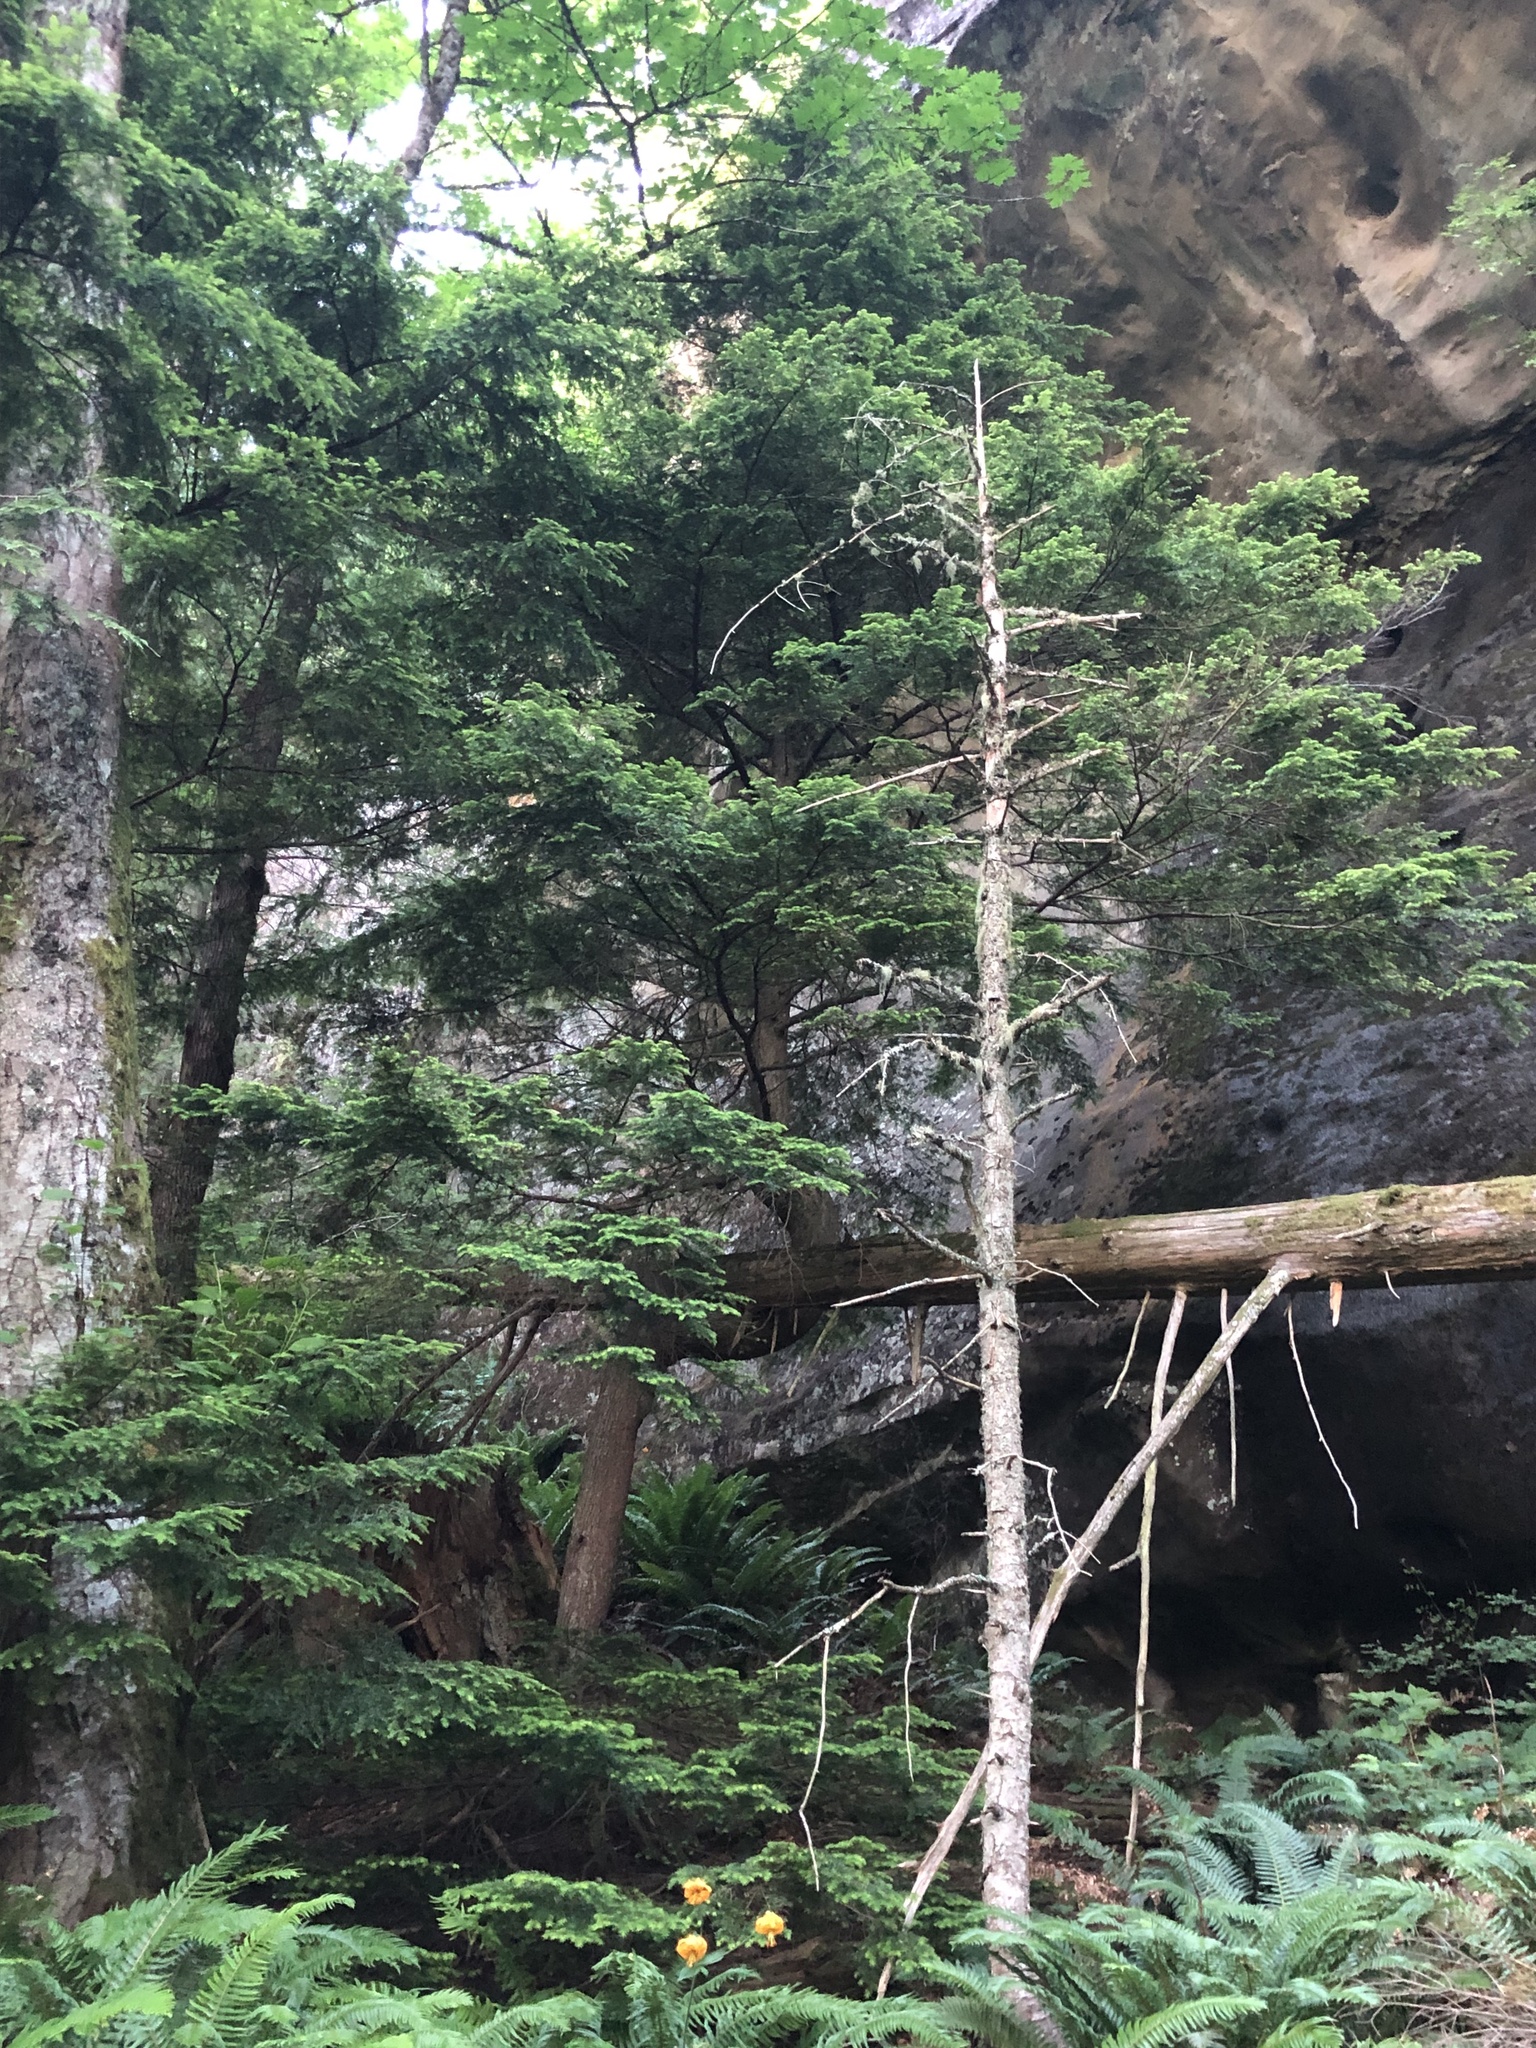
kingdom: Plantae
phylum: Tracheophyta
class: Pinopsida
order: Pinales
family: Pinaceae
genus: Tsuga
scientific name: Tsuga heterophylla
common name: Western hemlock
